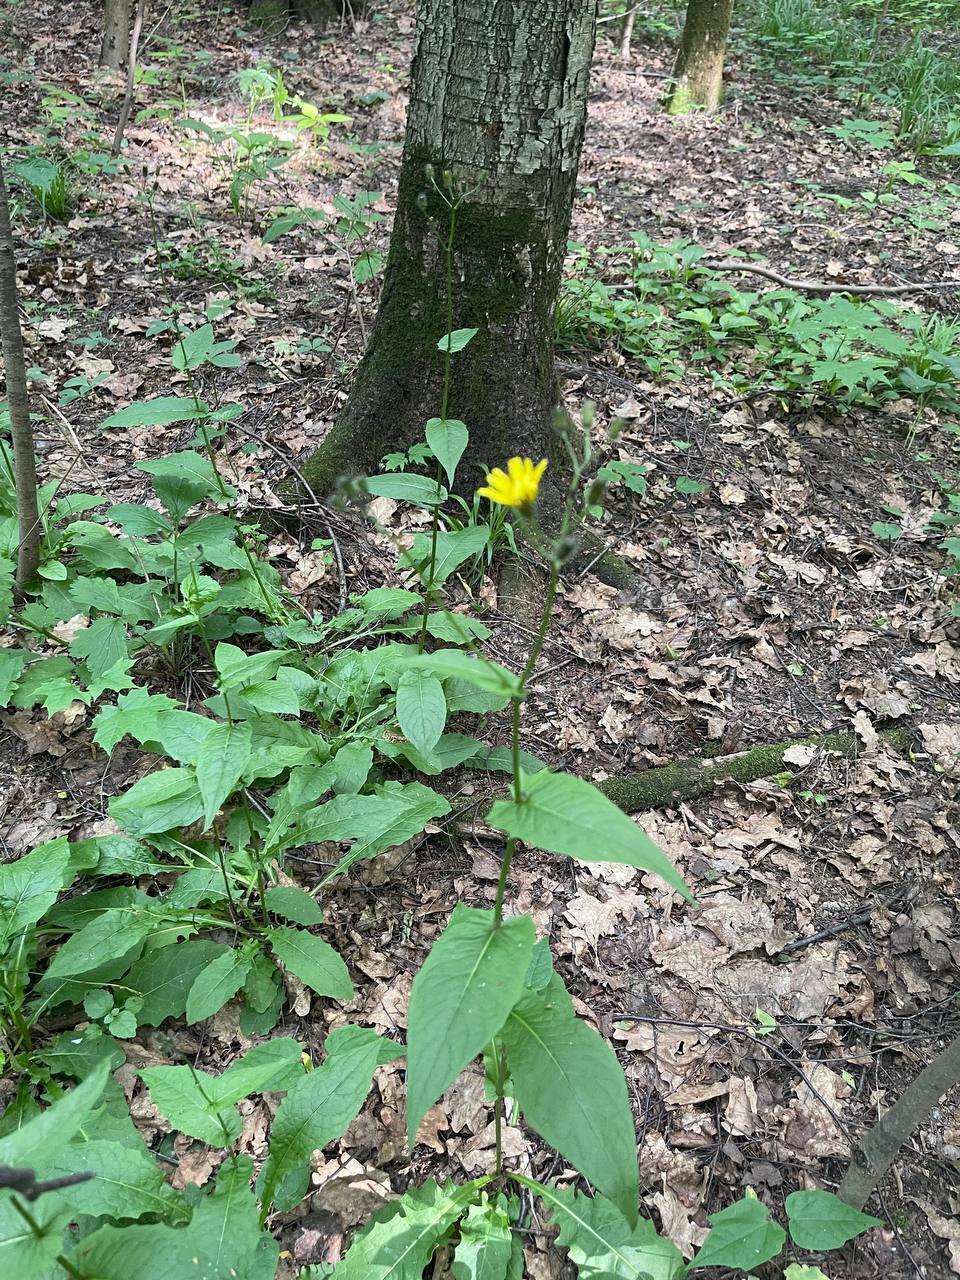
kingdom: Plantae
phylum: Tracheophyta
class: Magnoliopsida
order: Asterales
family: Asteraceae
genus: Crepis
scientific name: Crepis paludosa
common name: Marsh hawk's-beard
